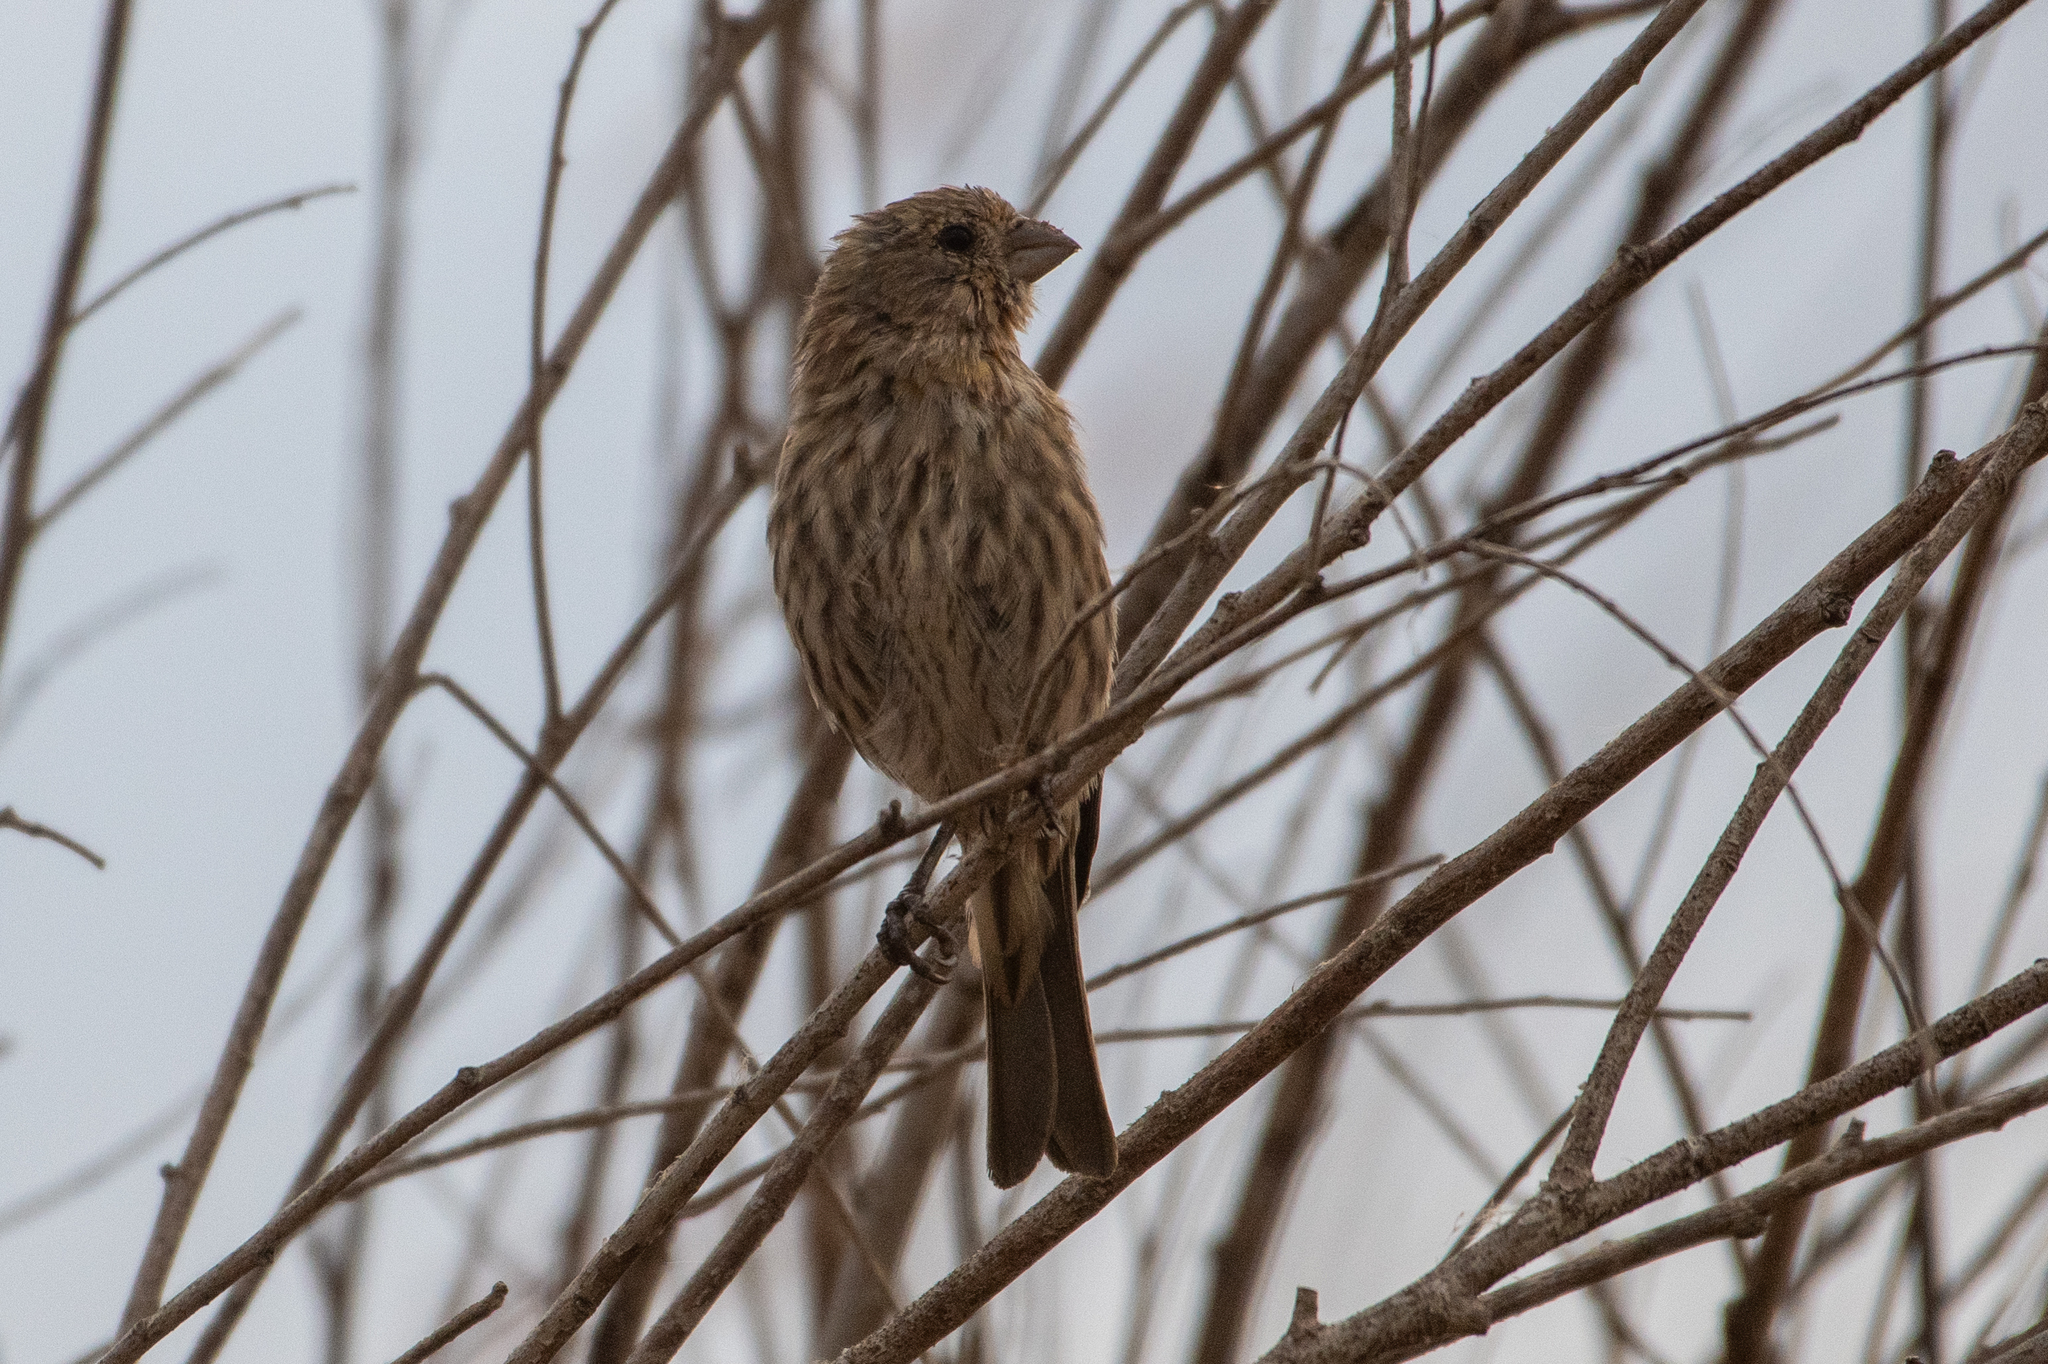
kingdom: Animalia
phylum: Chordata
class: Aves
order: Passeriformes
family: Fringillidae
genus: Haemorhous
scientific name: Haemorhous mexicanus
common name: House finch
